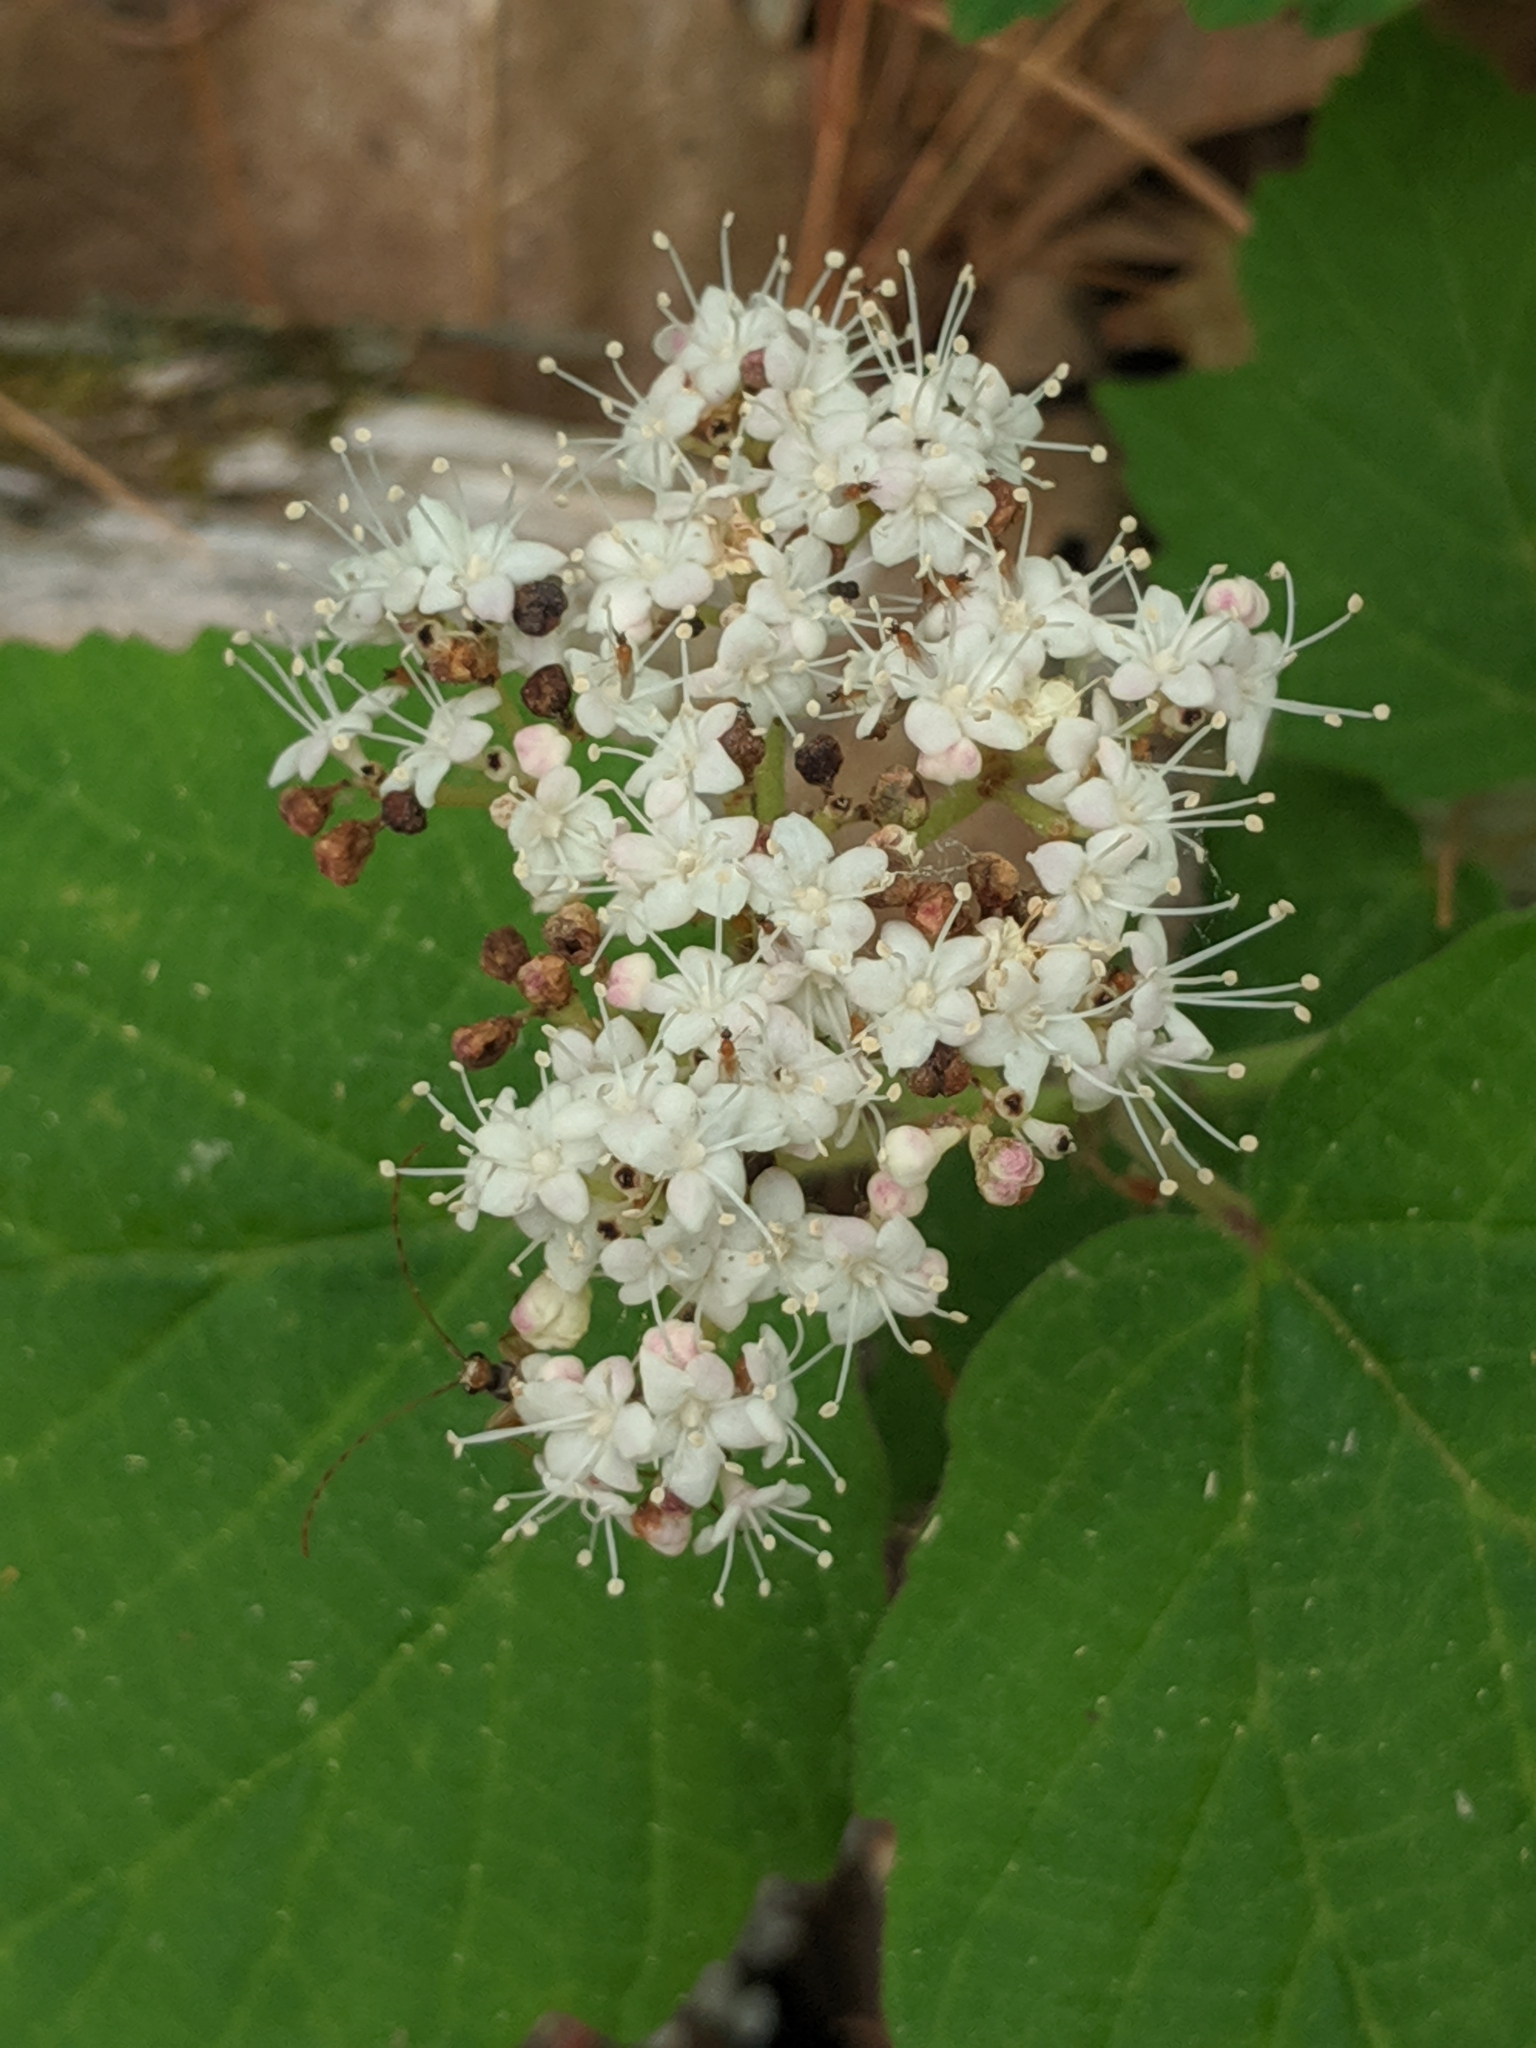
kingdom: Plantae
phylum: Tracheophyta
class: Magnoliopsida
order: Dipsacales
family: Viburnaceae
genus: Viburnum
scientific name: Viburnum acerifolium
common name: Dockmackie
